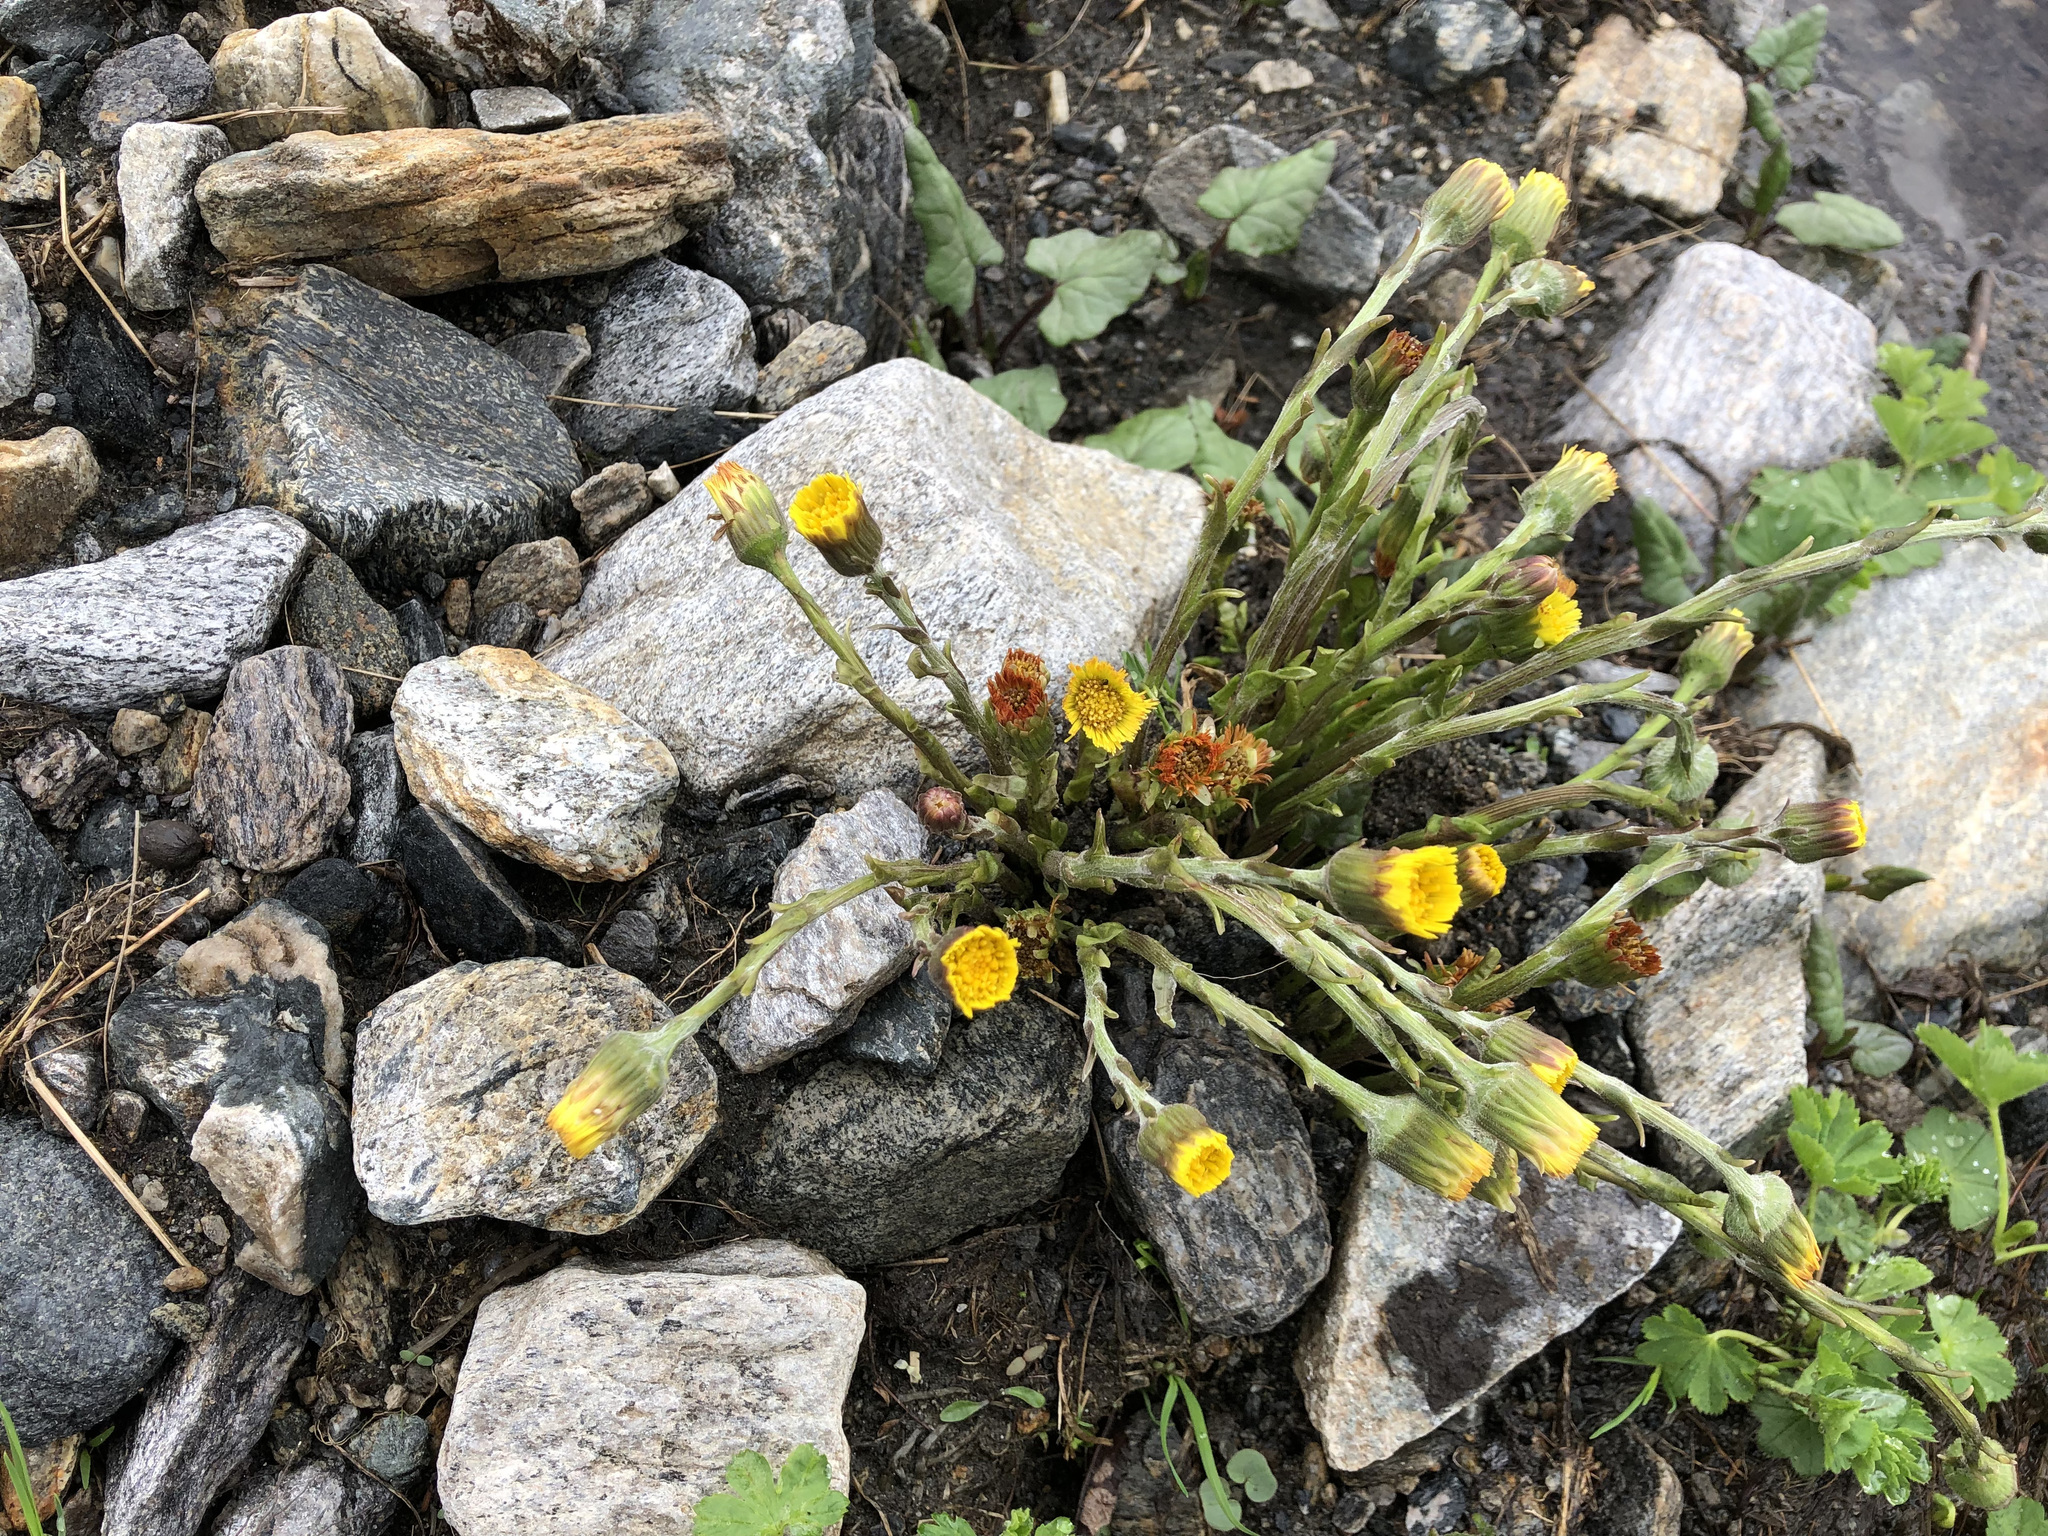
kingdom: Plantae
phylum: Tracheophyta
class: Magnoliopsida
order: Asterales
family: Asteraceae
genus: Tussilago
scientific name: Tussilago farfara
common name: Coltsfoot
